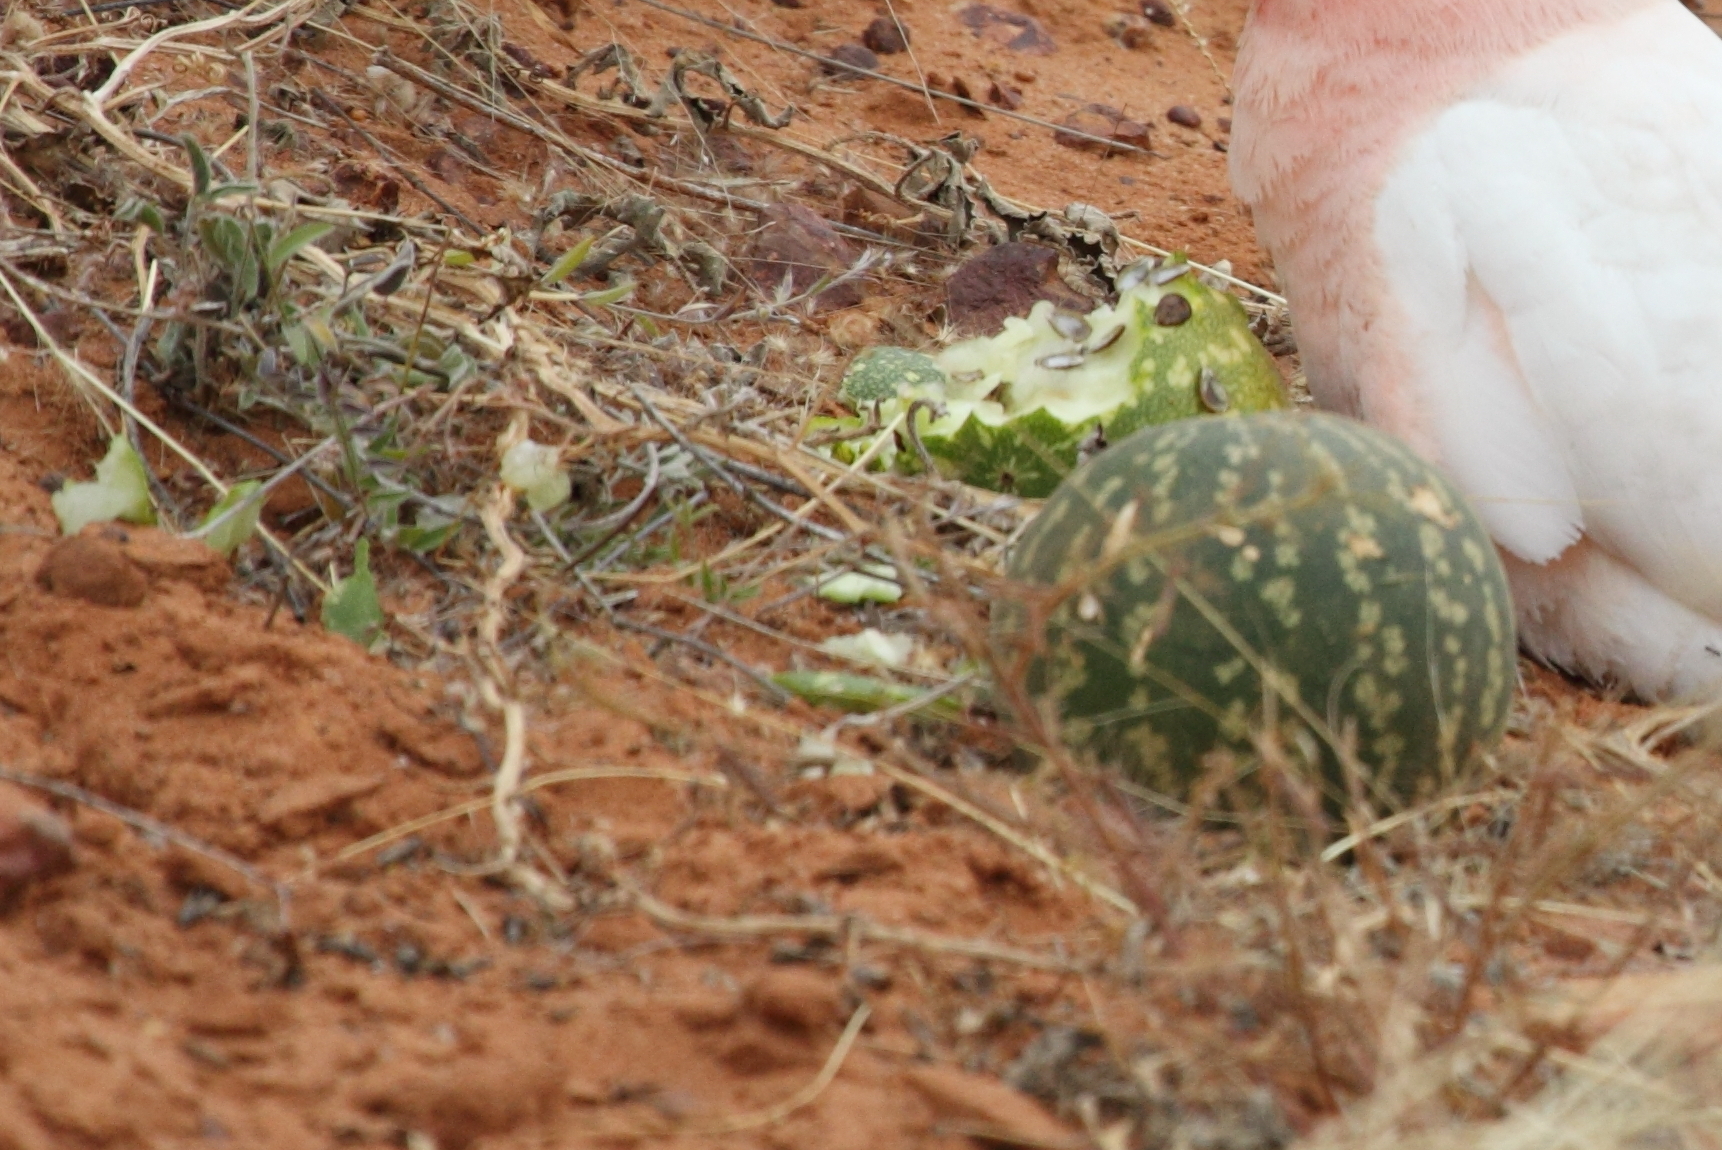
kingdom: Plantae
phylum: Tracheophyta
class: Magnoliopsida
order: Cucurbitales
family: Cucurbitaceae
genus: Citrullus
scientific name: Citrullus amarus
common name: Fodder-melon
